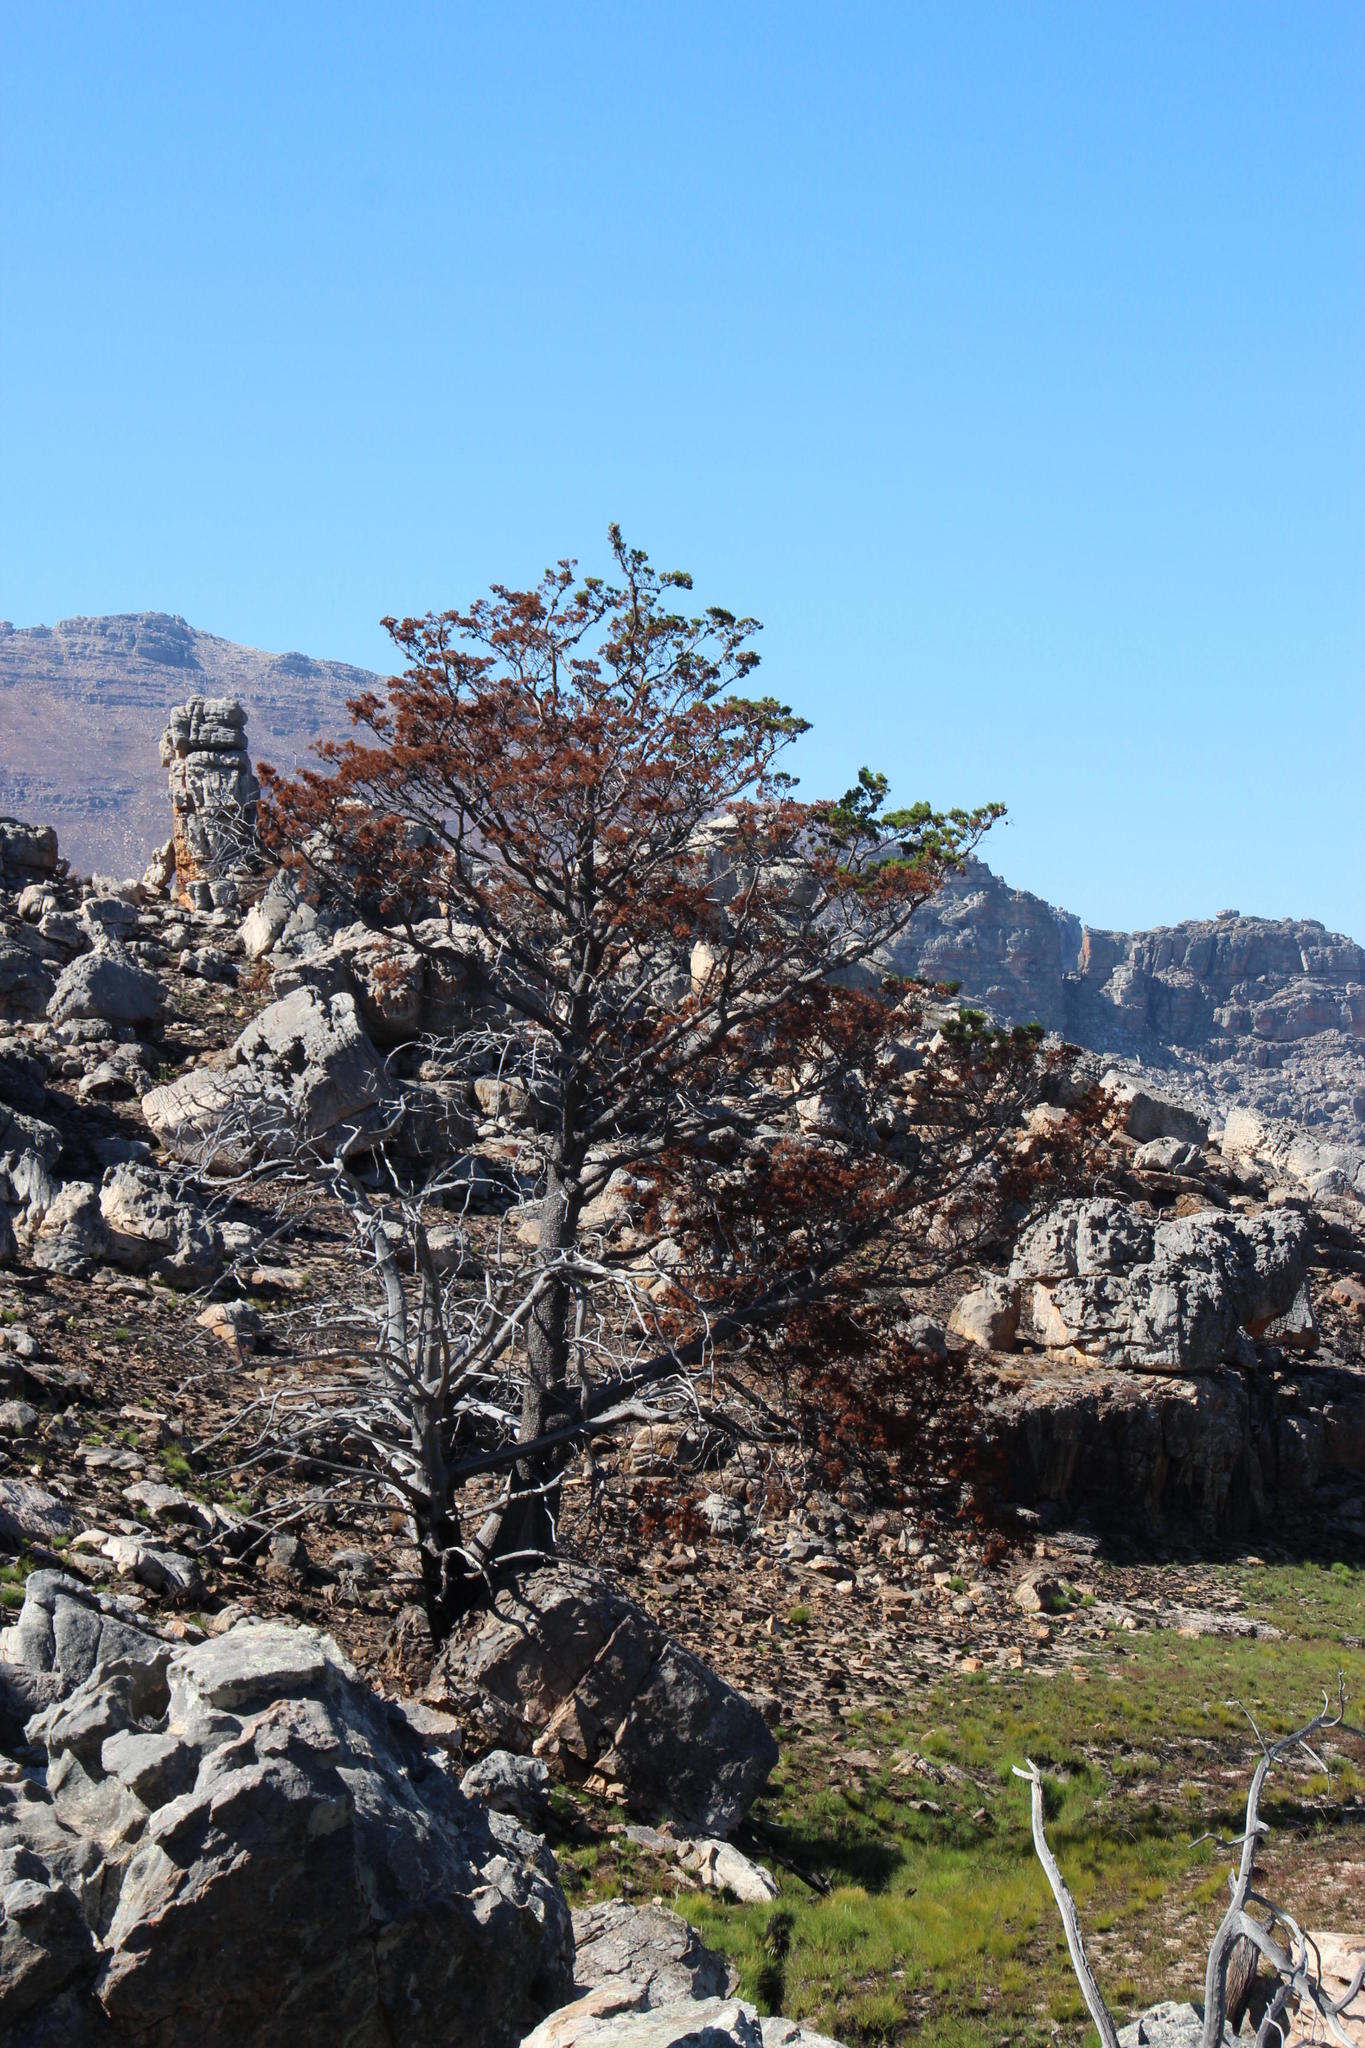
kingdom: Plantae
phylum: Tracheophyta
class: Pinopsida
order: Pinales
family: Cupressaceae
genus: Widdringtonia
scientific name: Widdringtonia nodiflora
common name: Cape cypress
